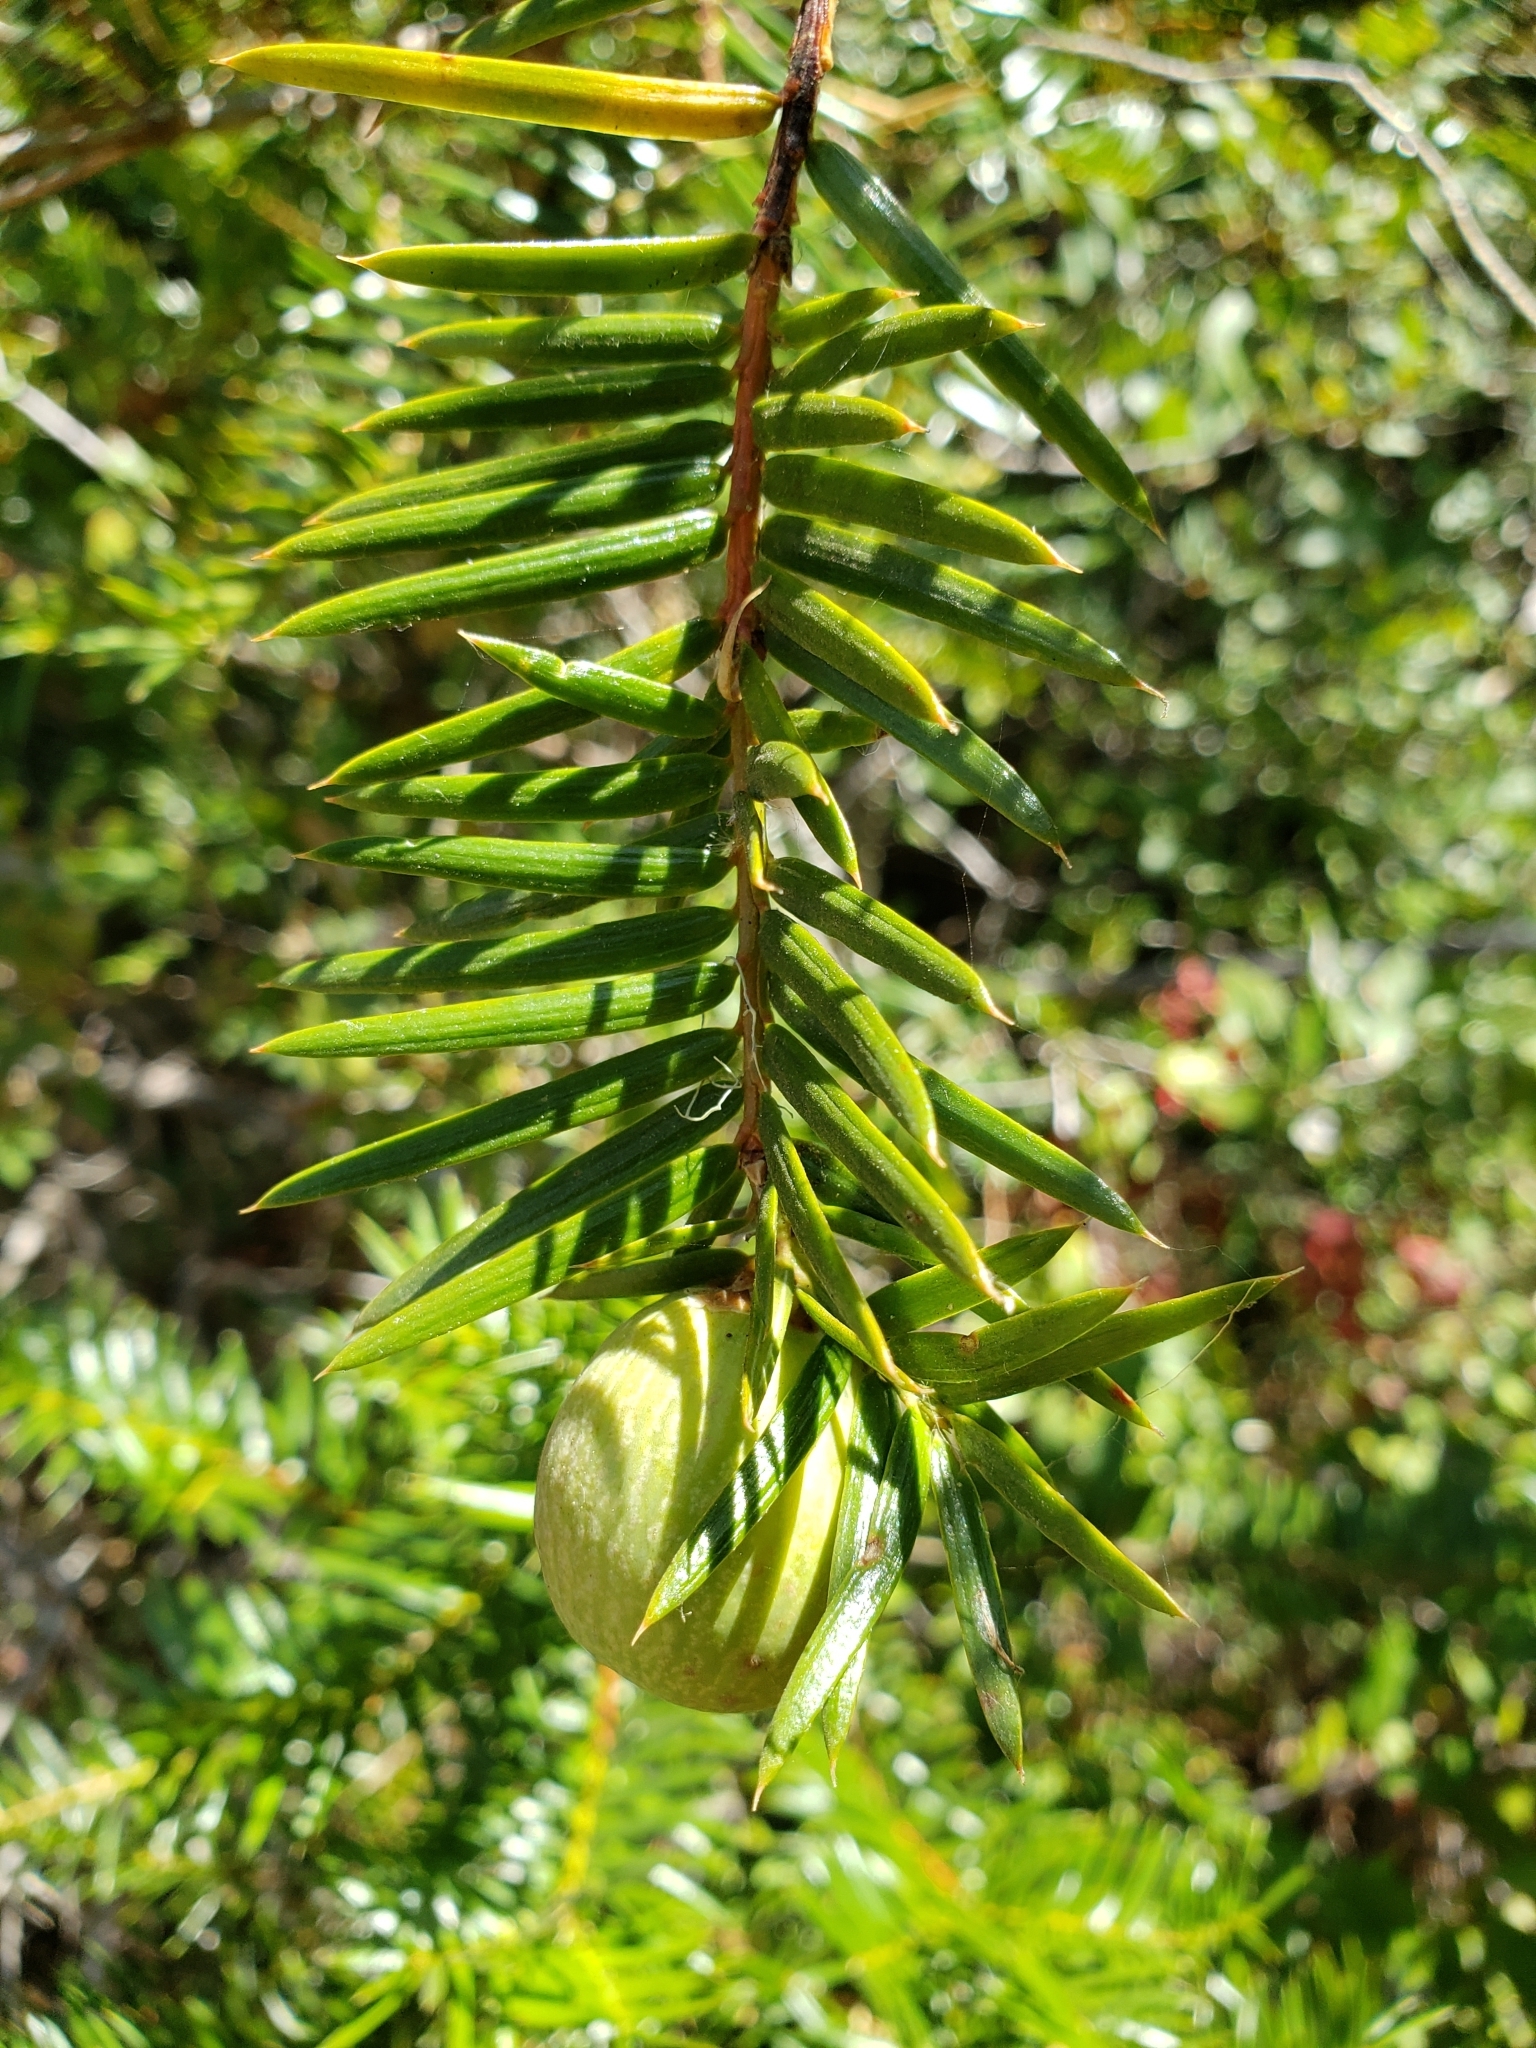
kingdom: Plantae
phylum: Tracheophyta
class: Pinopsida
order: Pinales
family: Taxaceae
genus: Torreya
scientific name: Torreya californica
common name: California torreya
